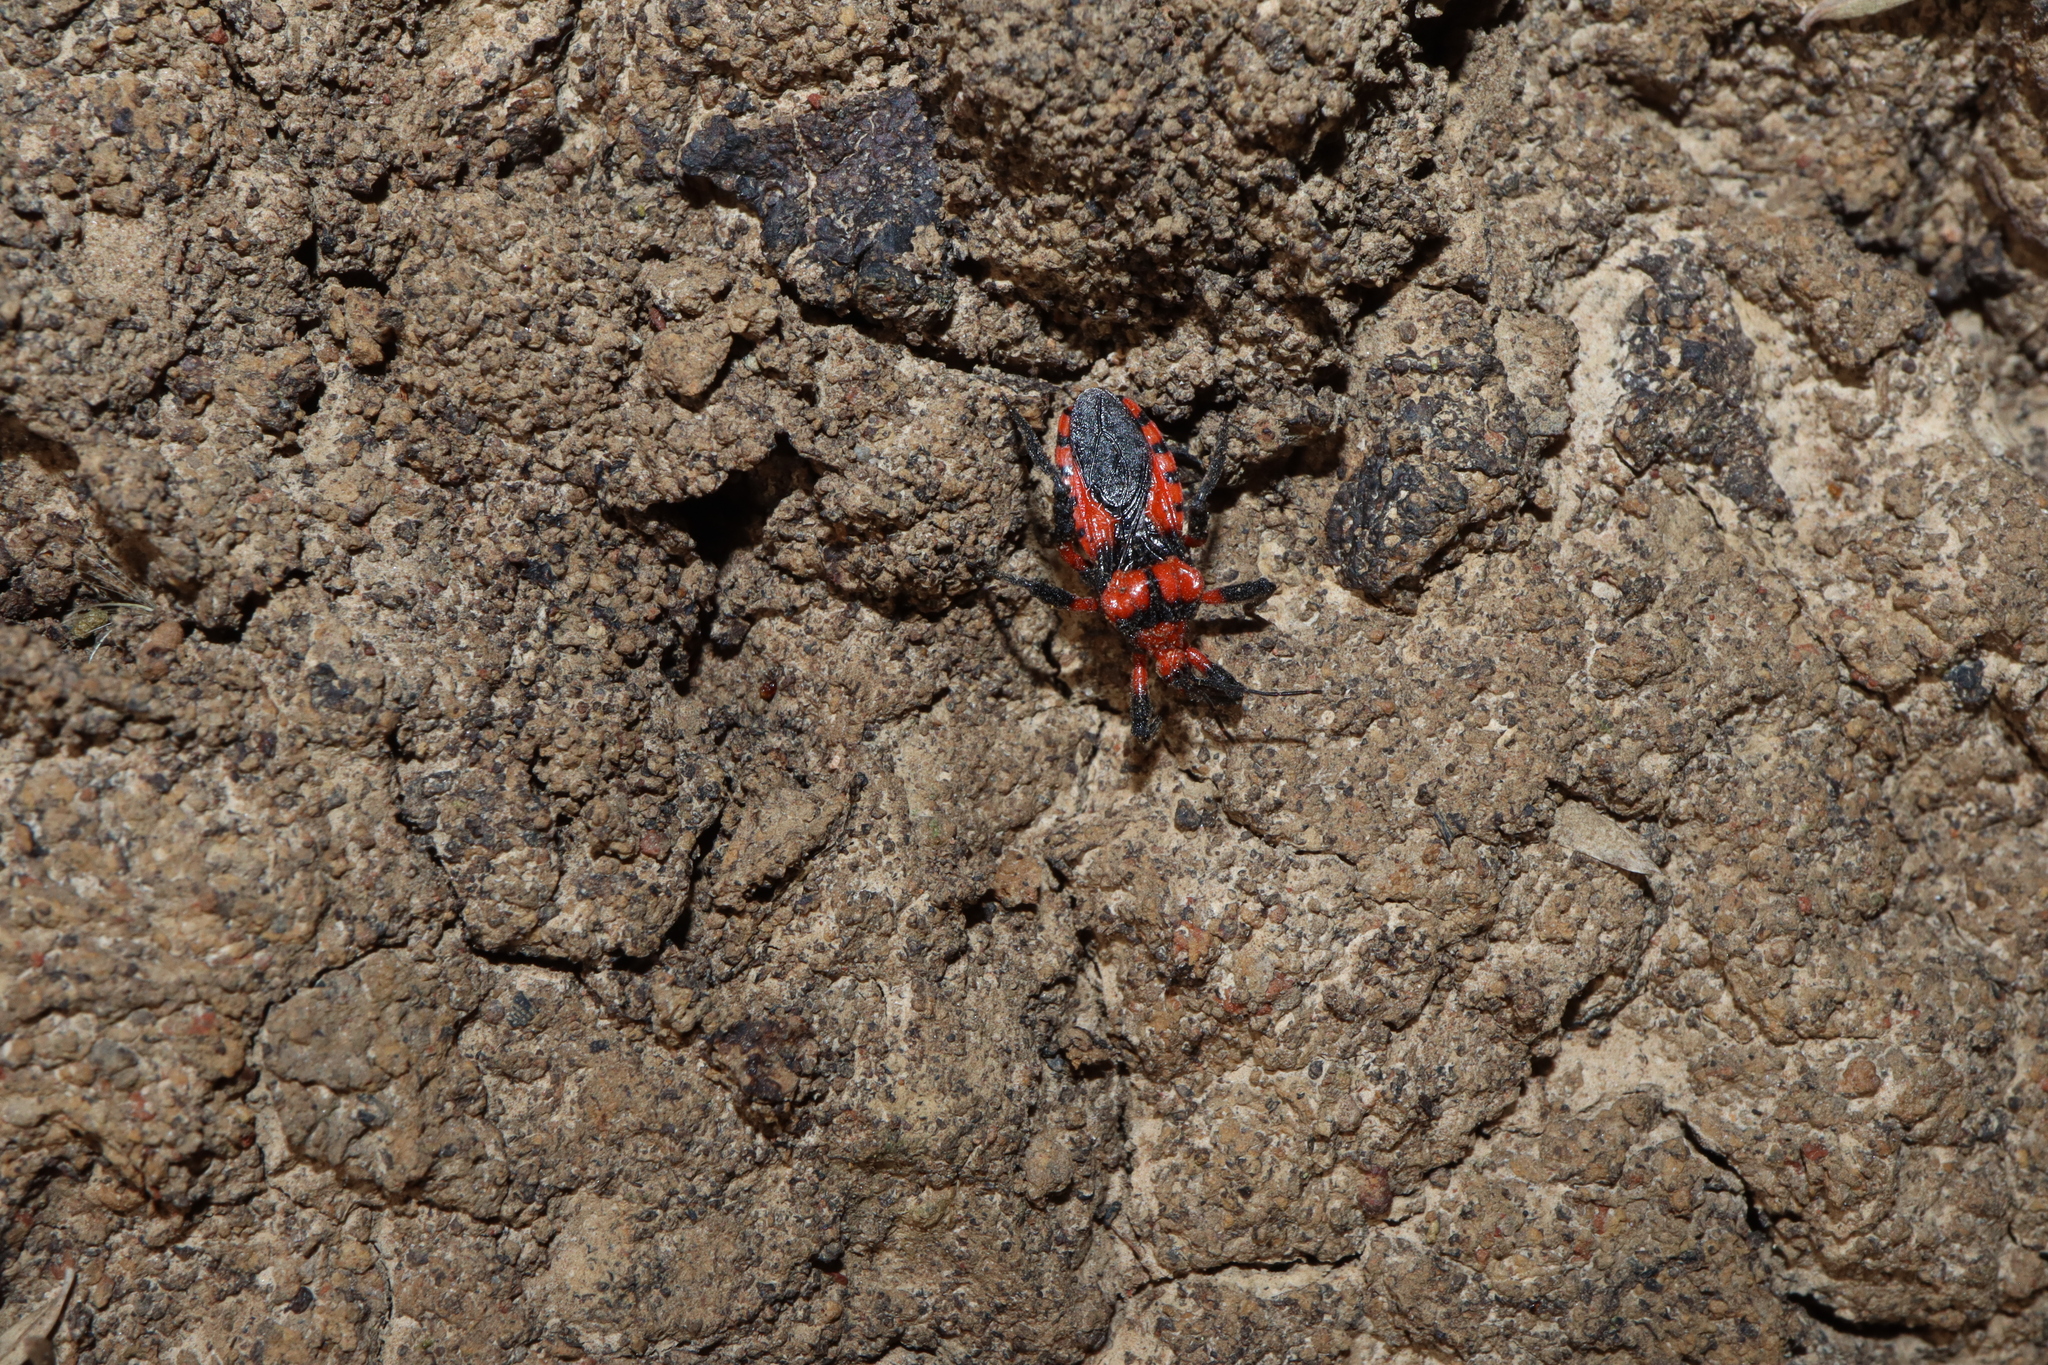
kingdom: Animalia
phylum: Arthropoda
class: Insecta
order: Hemiptera
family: Reduviidae
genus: Tegea
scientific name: Tegea atropicta
